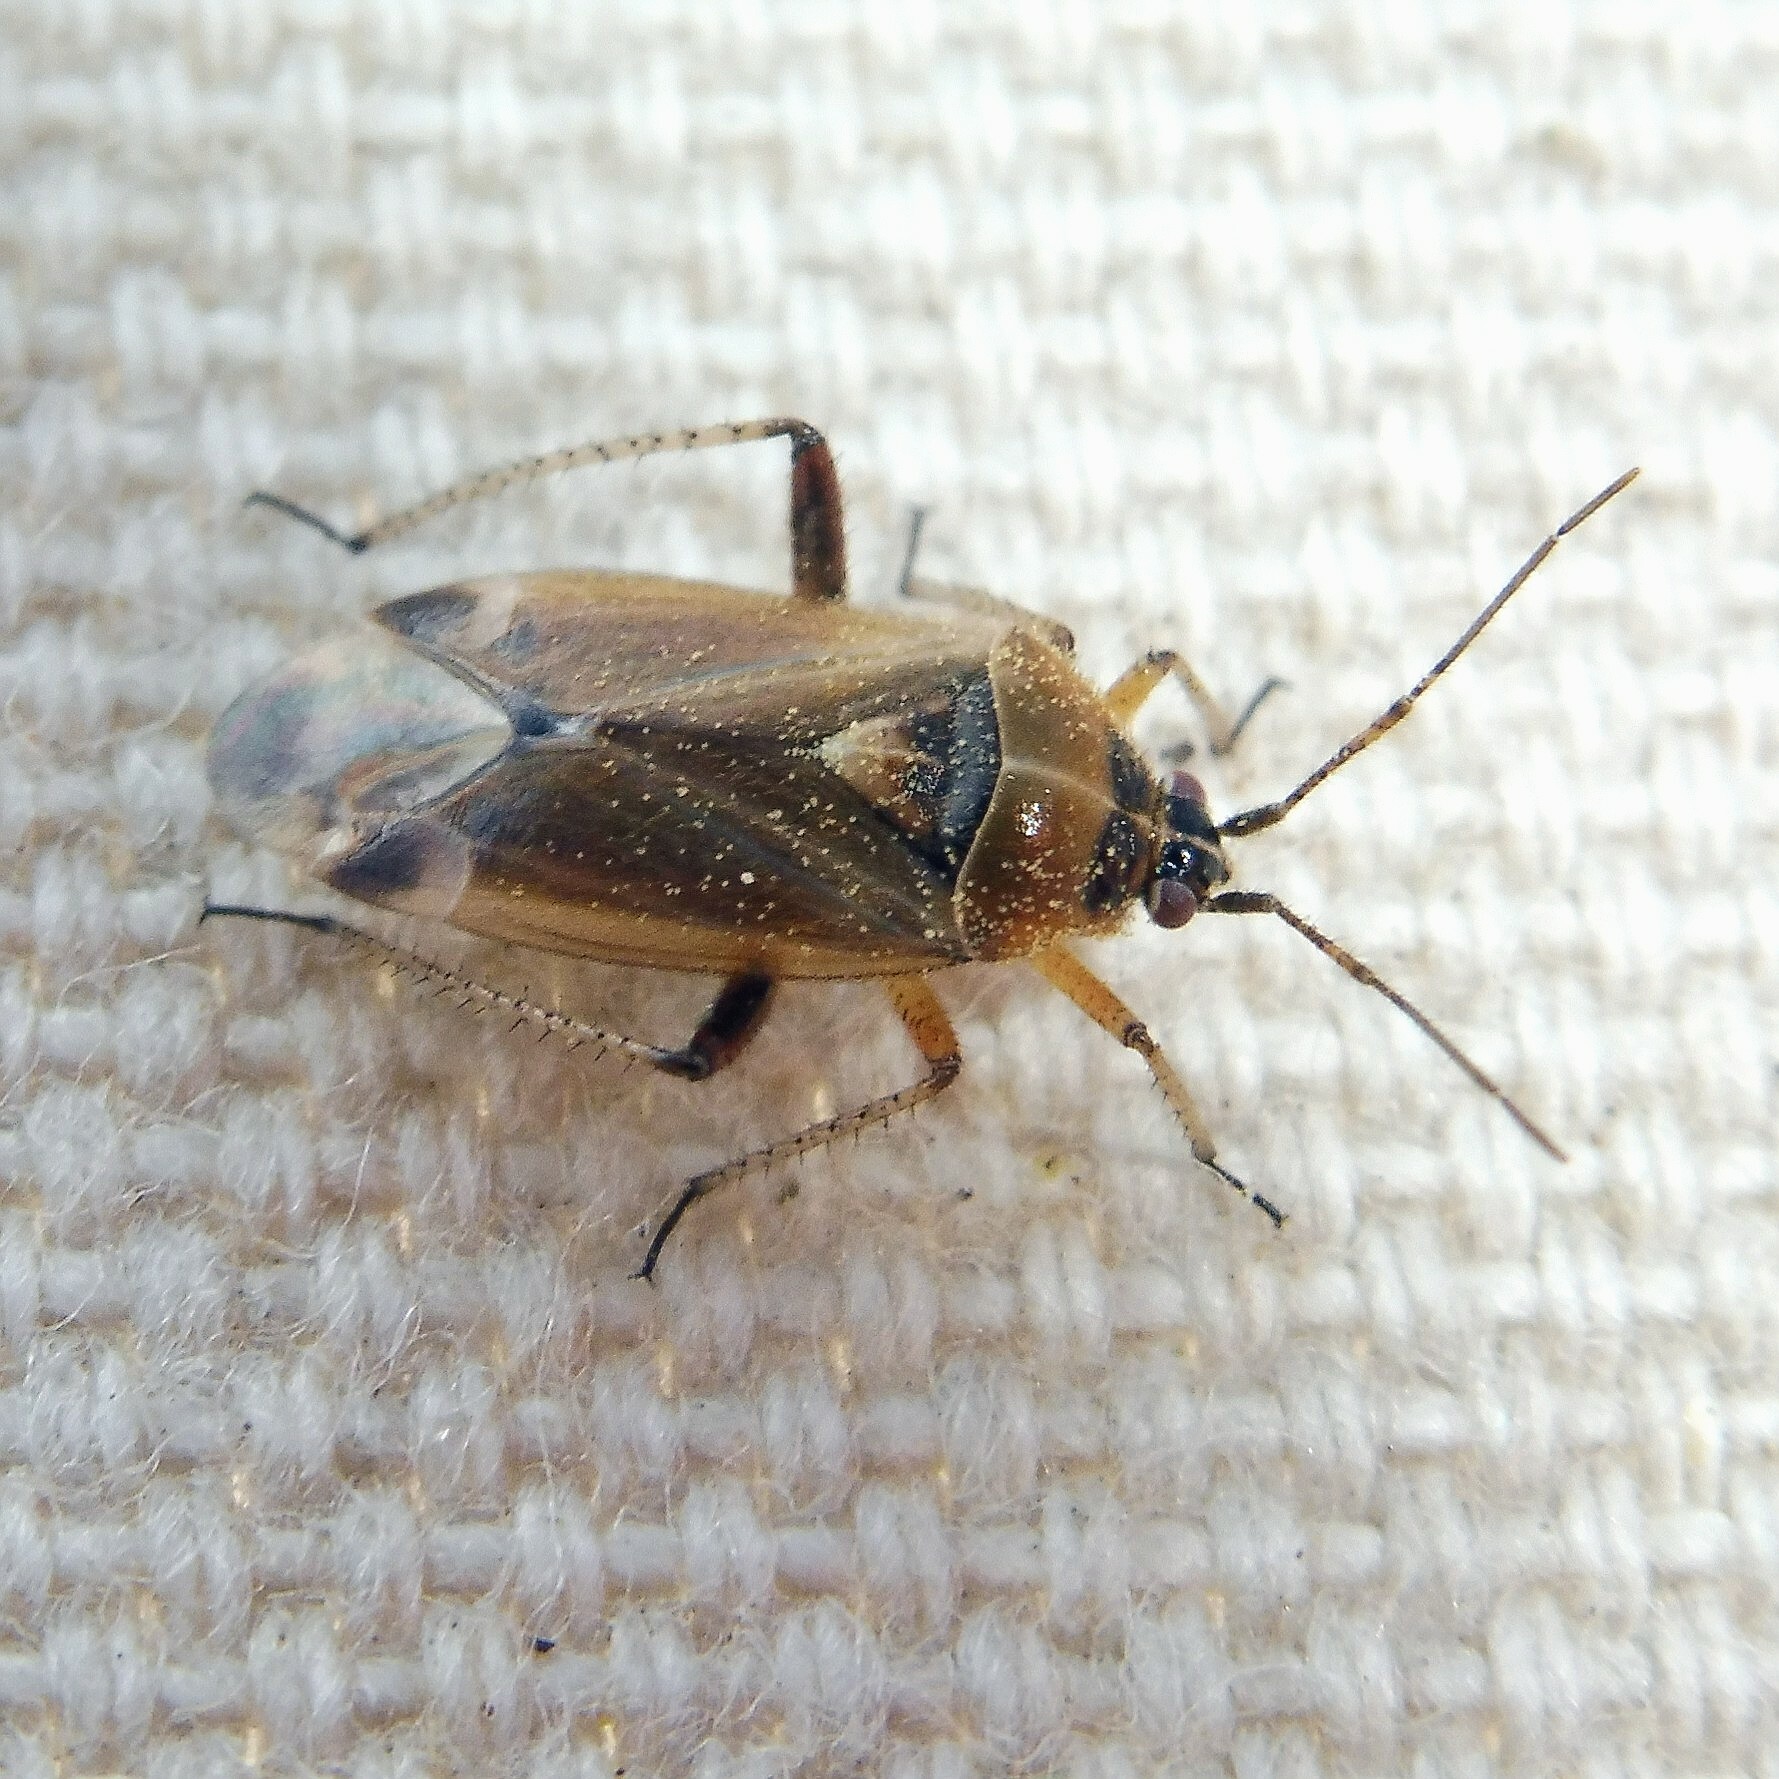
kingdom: Animalia
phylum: Arthropoda
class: Insecta
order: Hemiptera
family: Miridae
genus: Harpocera
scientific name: Harpocera thoracica
